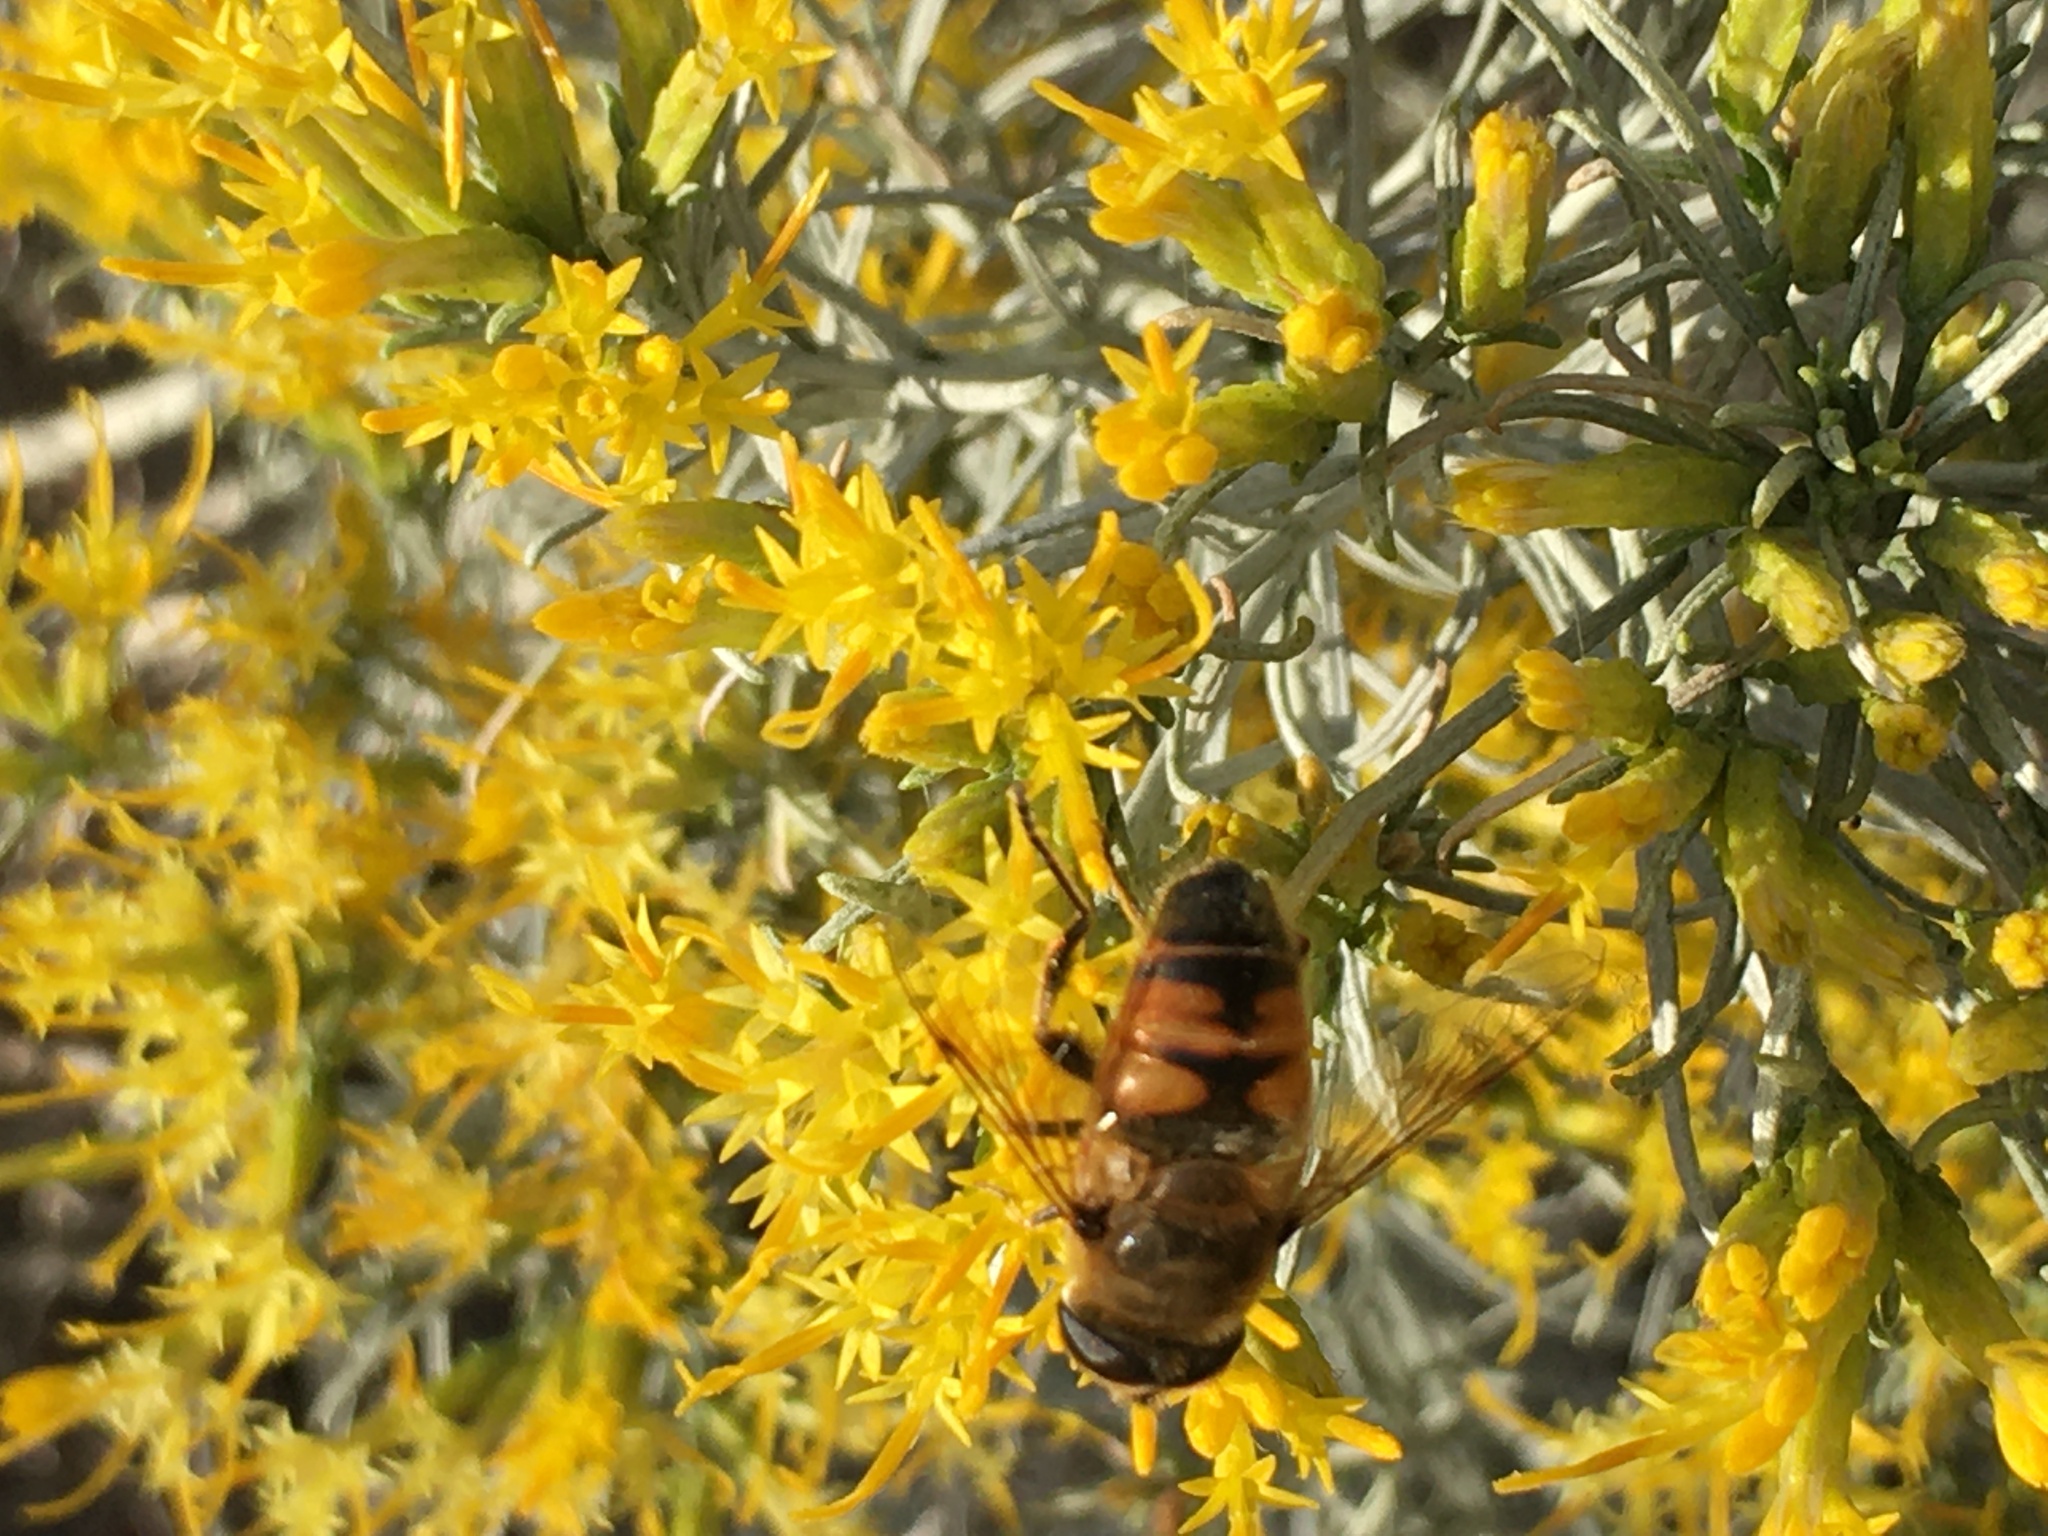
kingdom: Animalia
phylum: Arthropoda
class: Insecta
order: Diptera
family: Syrphidae
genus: Eristalis
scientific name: Eristalis tenax
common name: Drone fly
